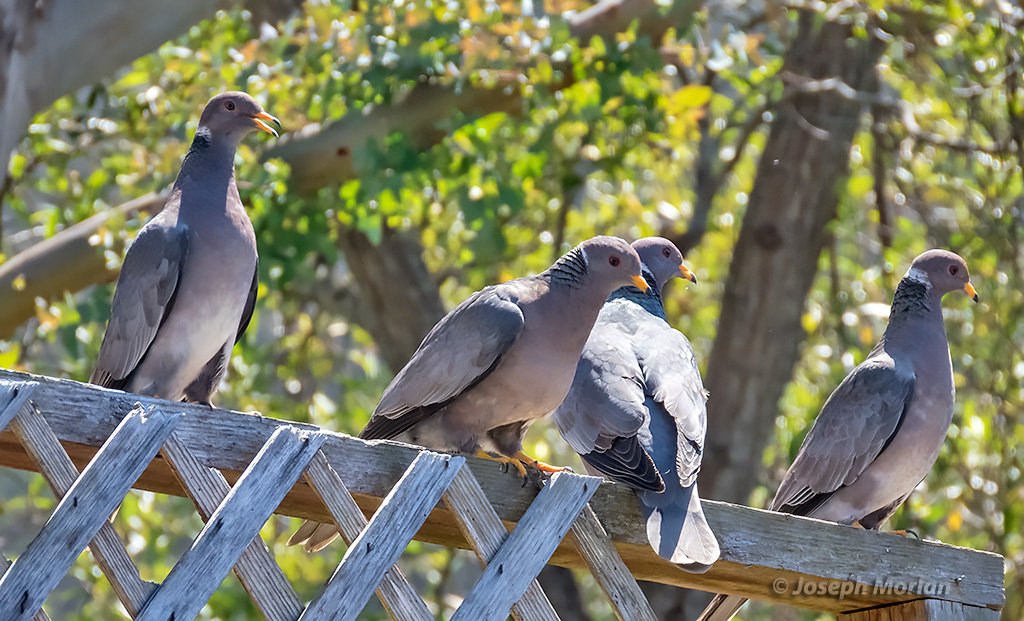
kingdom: Animalia
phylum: Chordata
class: Aves
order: Columbiformes
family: Columbidae
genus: Patagioenas
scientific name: Patagioenas fasciata
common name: Band-tailed pigeon
